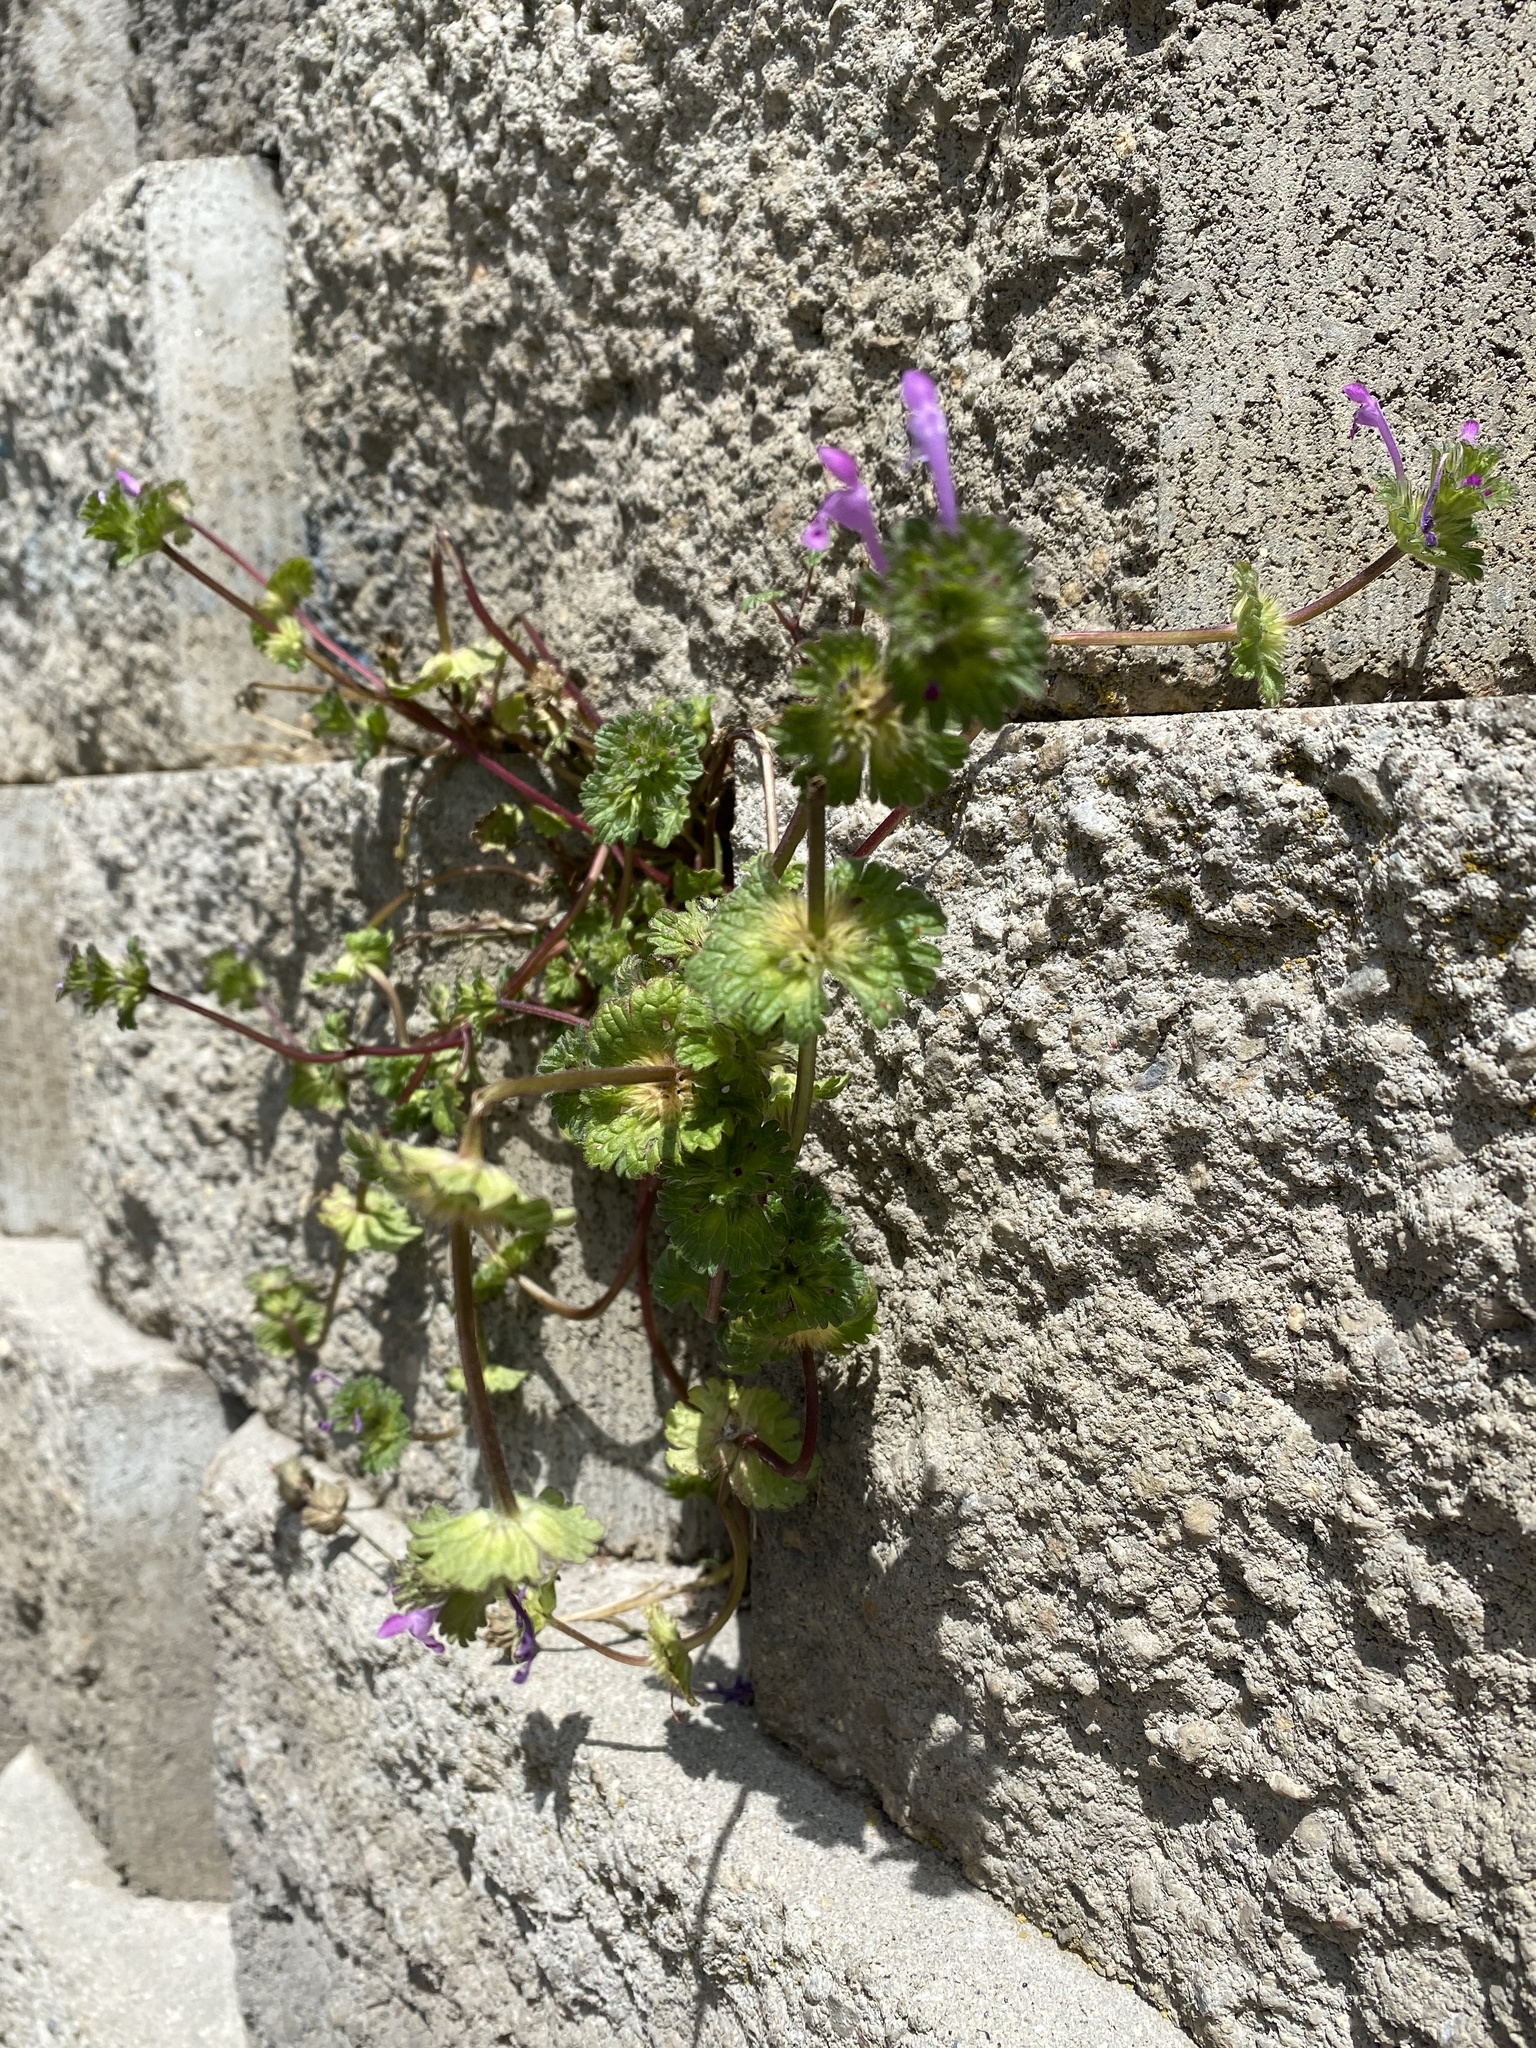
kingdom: Plantae
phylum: Tracheophyta
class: Magnoliopsida
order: Lamiales
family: Lamiaceae
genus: Lamium
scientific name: Lamium amplexicaule
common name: Henbit dead-nettle
